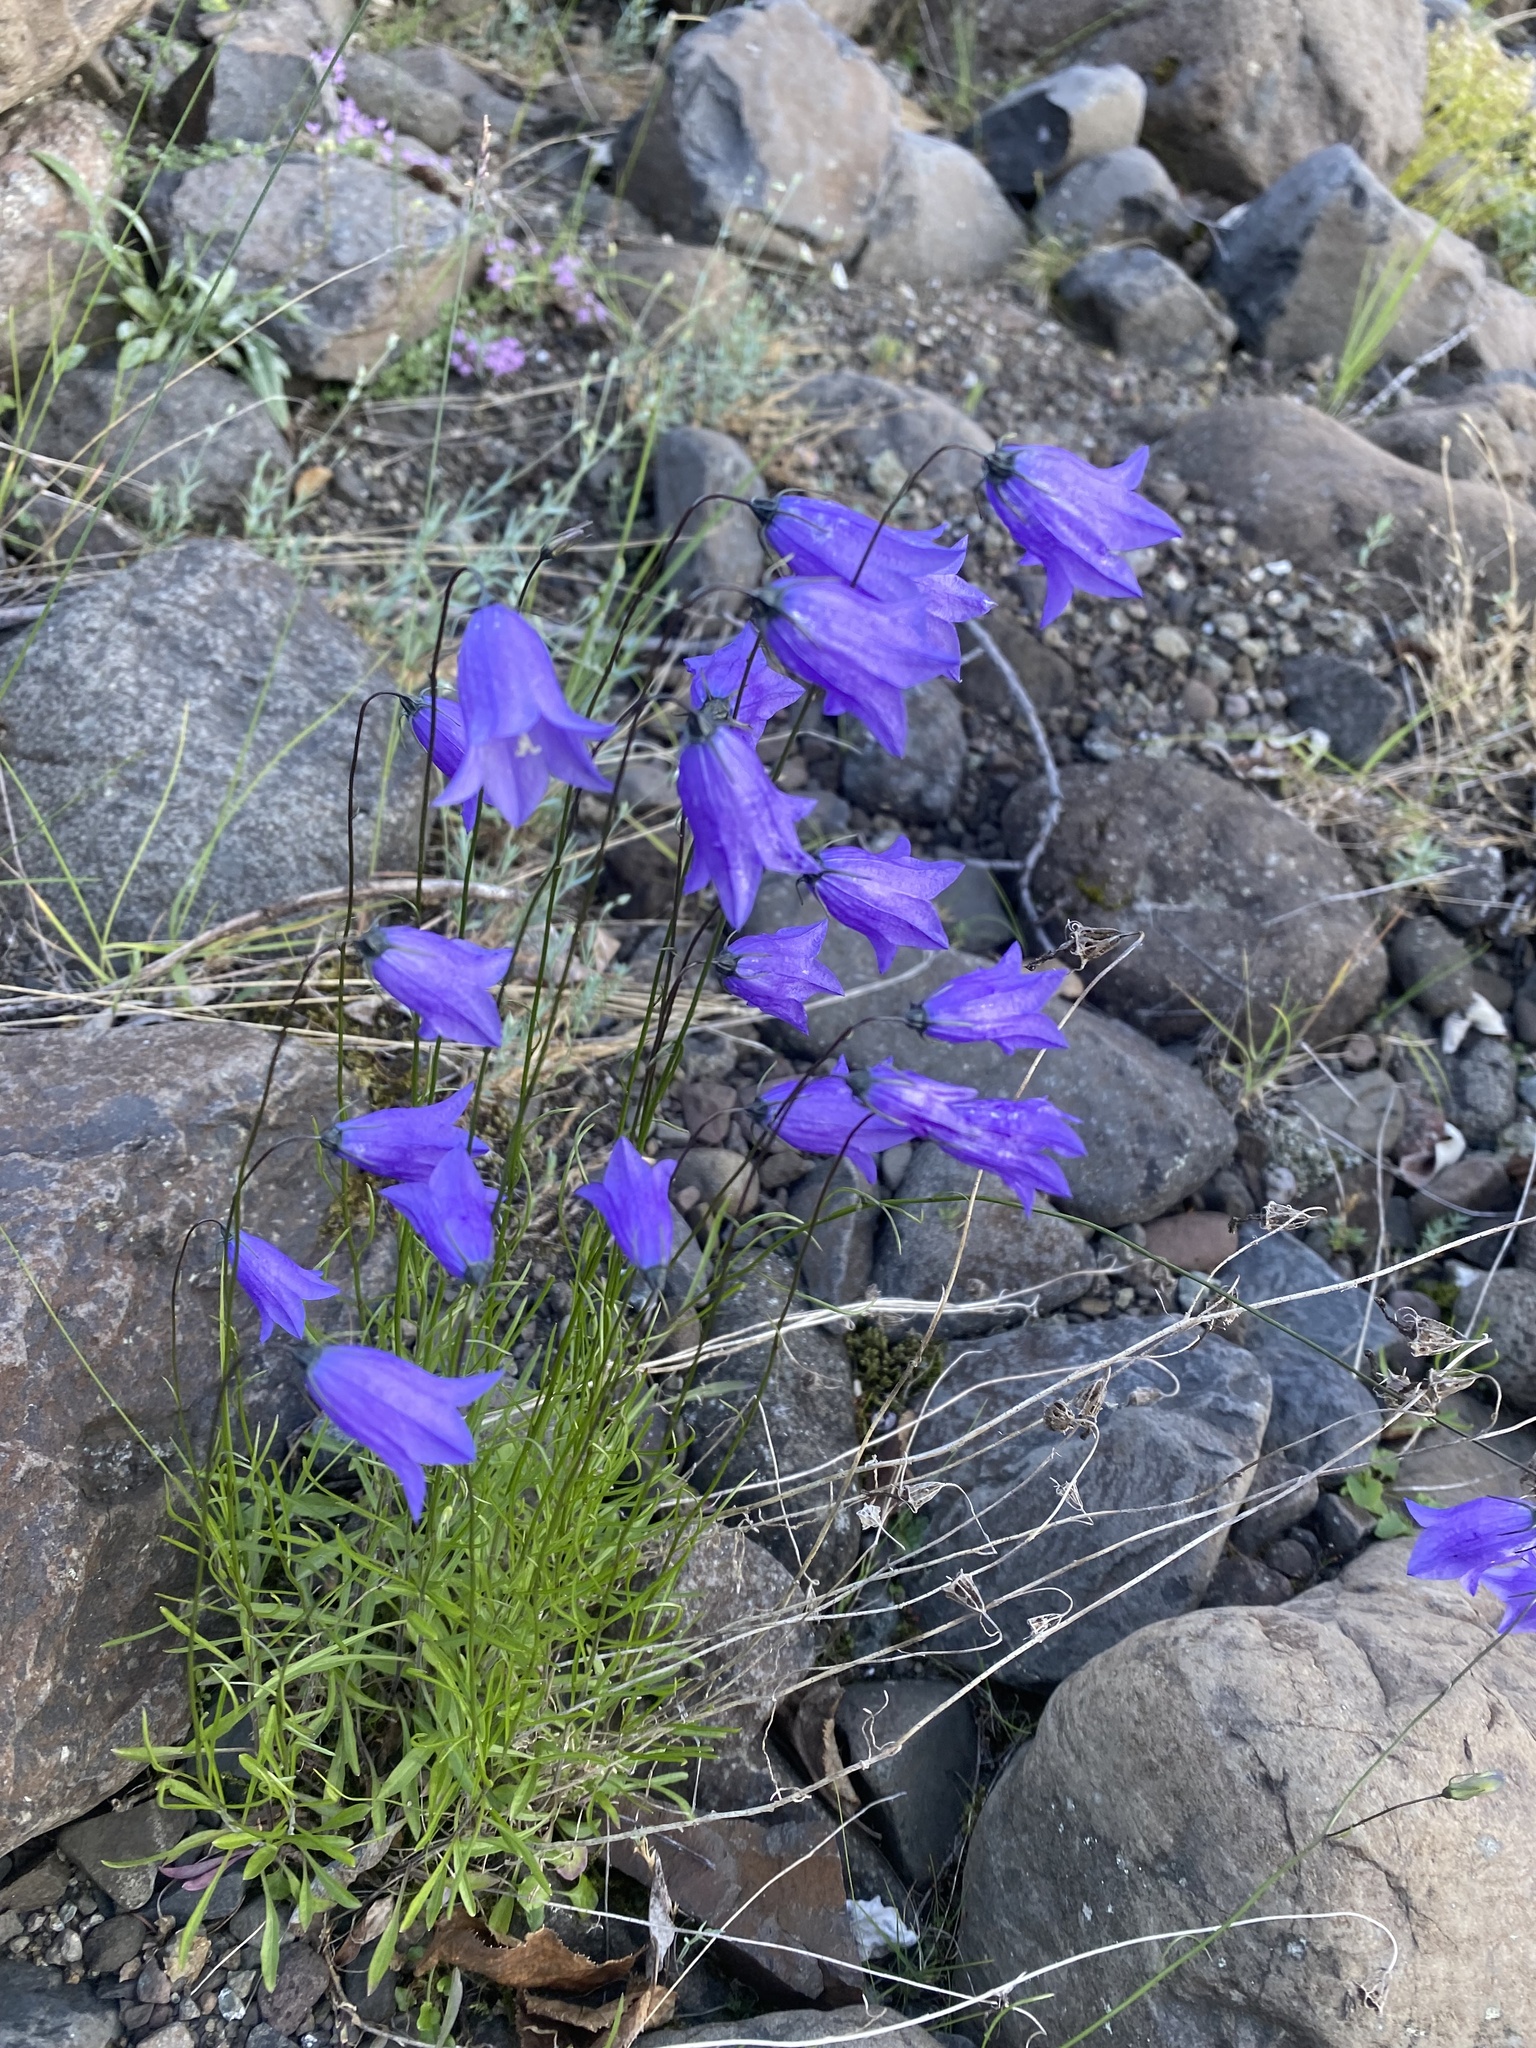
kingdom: Plantae
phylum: Tracheophyta
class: Magnoliopsida
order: Asterales
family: Campanulaceae
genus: Campanula
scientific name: Campanula rotundifolia
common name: Harebell
